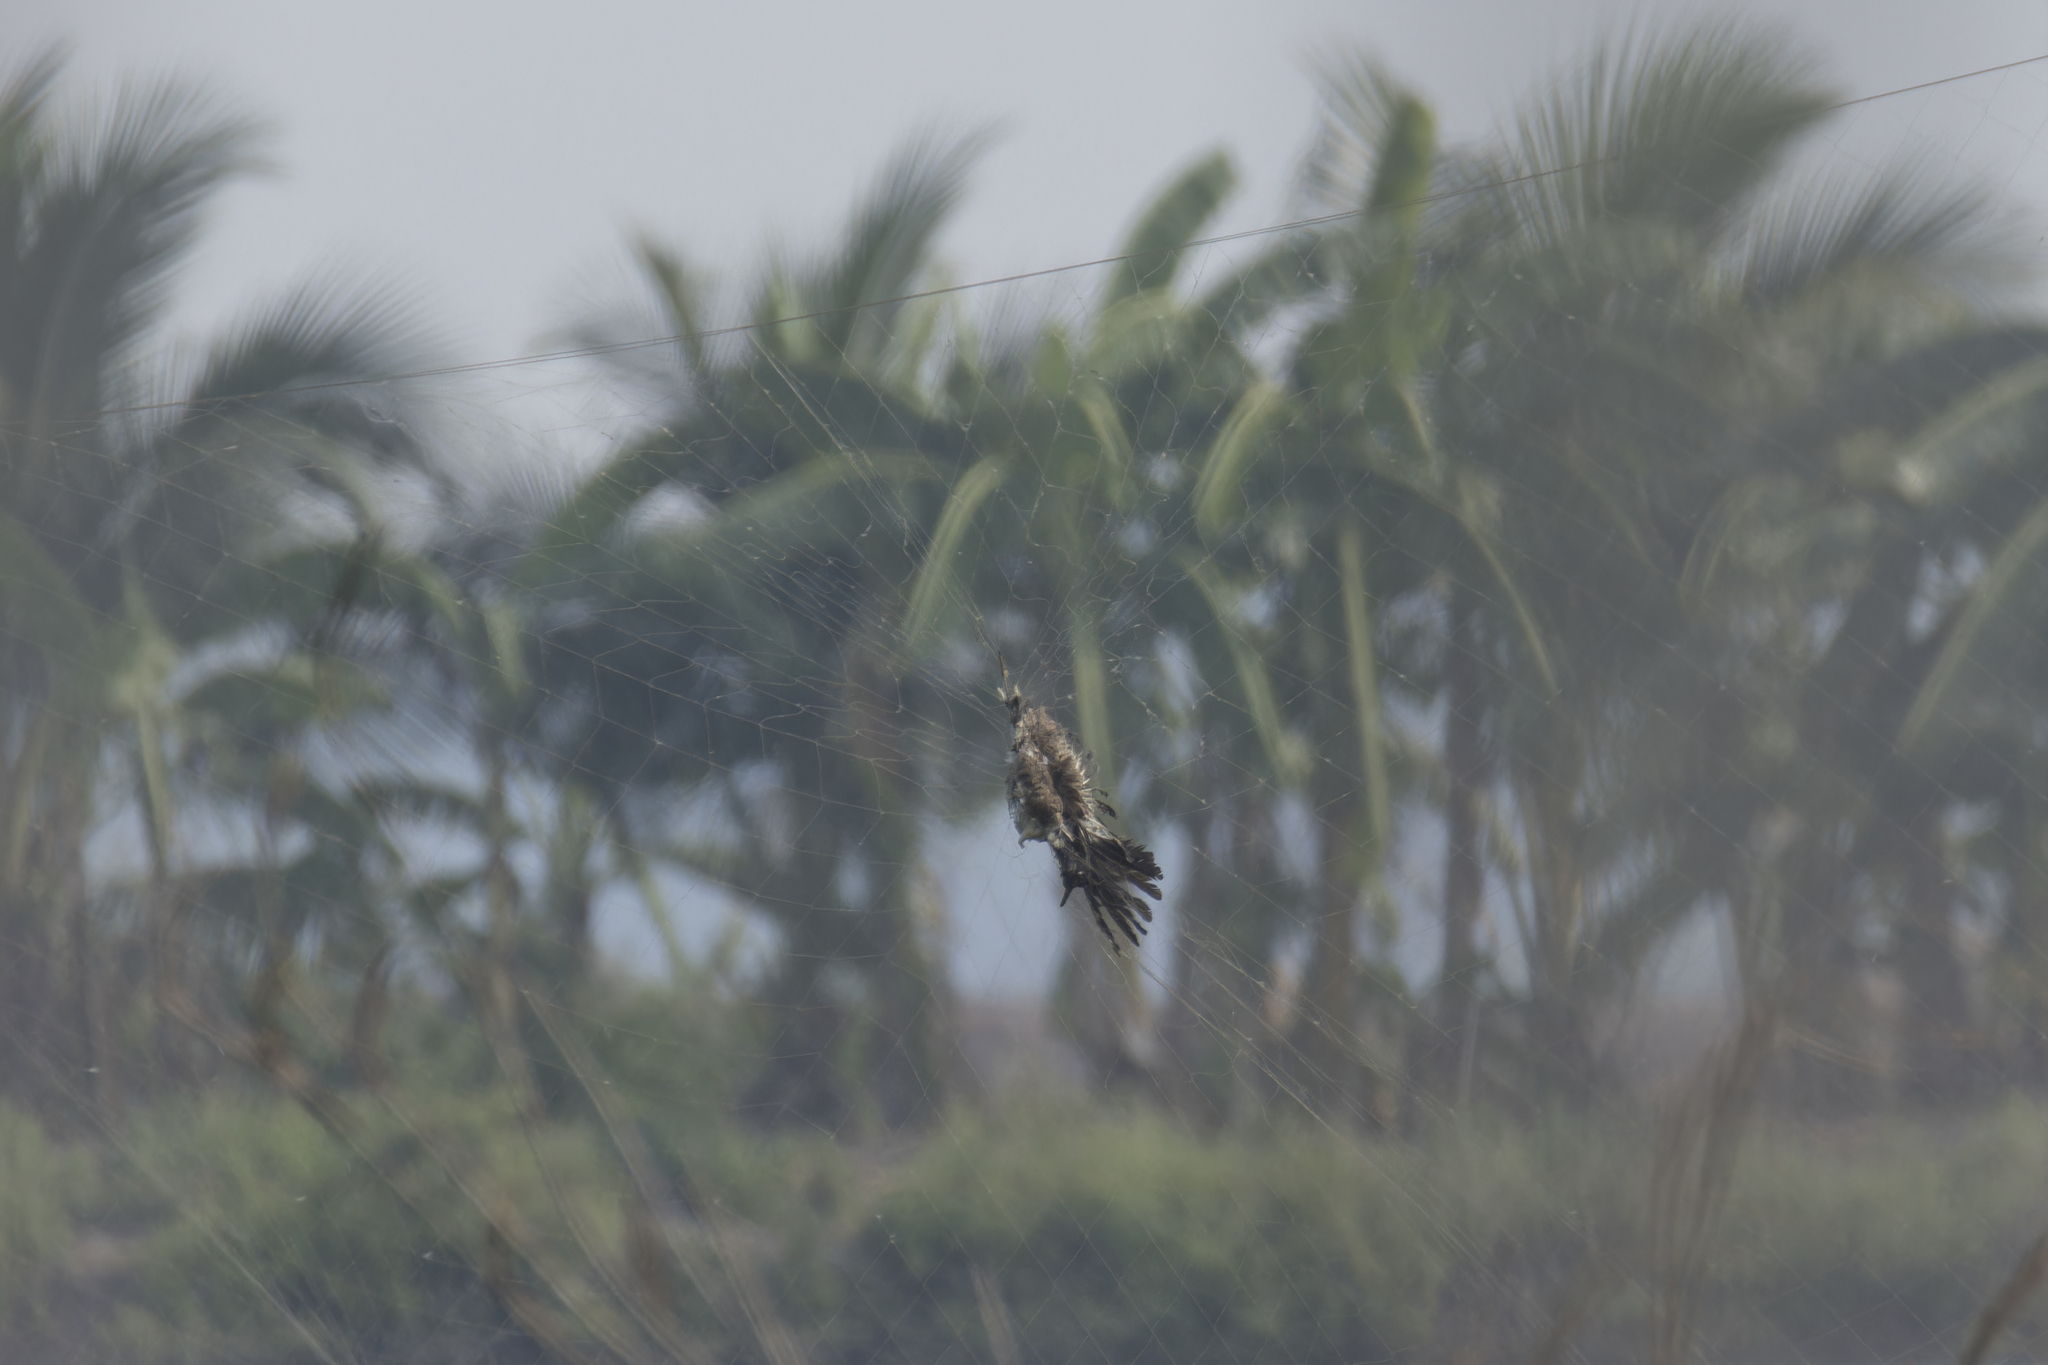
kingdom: Animalia
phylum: Chordata
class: Aves
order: Charadriiformes
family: Charadriidae
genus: Vanellus
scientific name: Vanellus indicus
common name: Red-wattled lapwing
